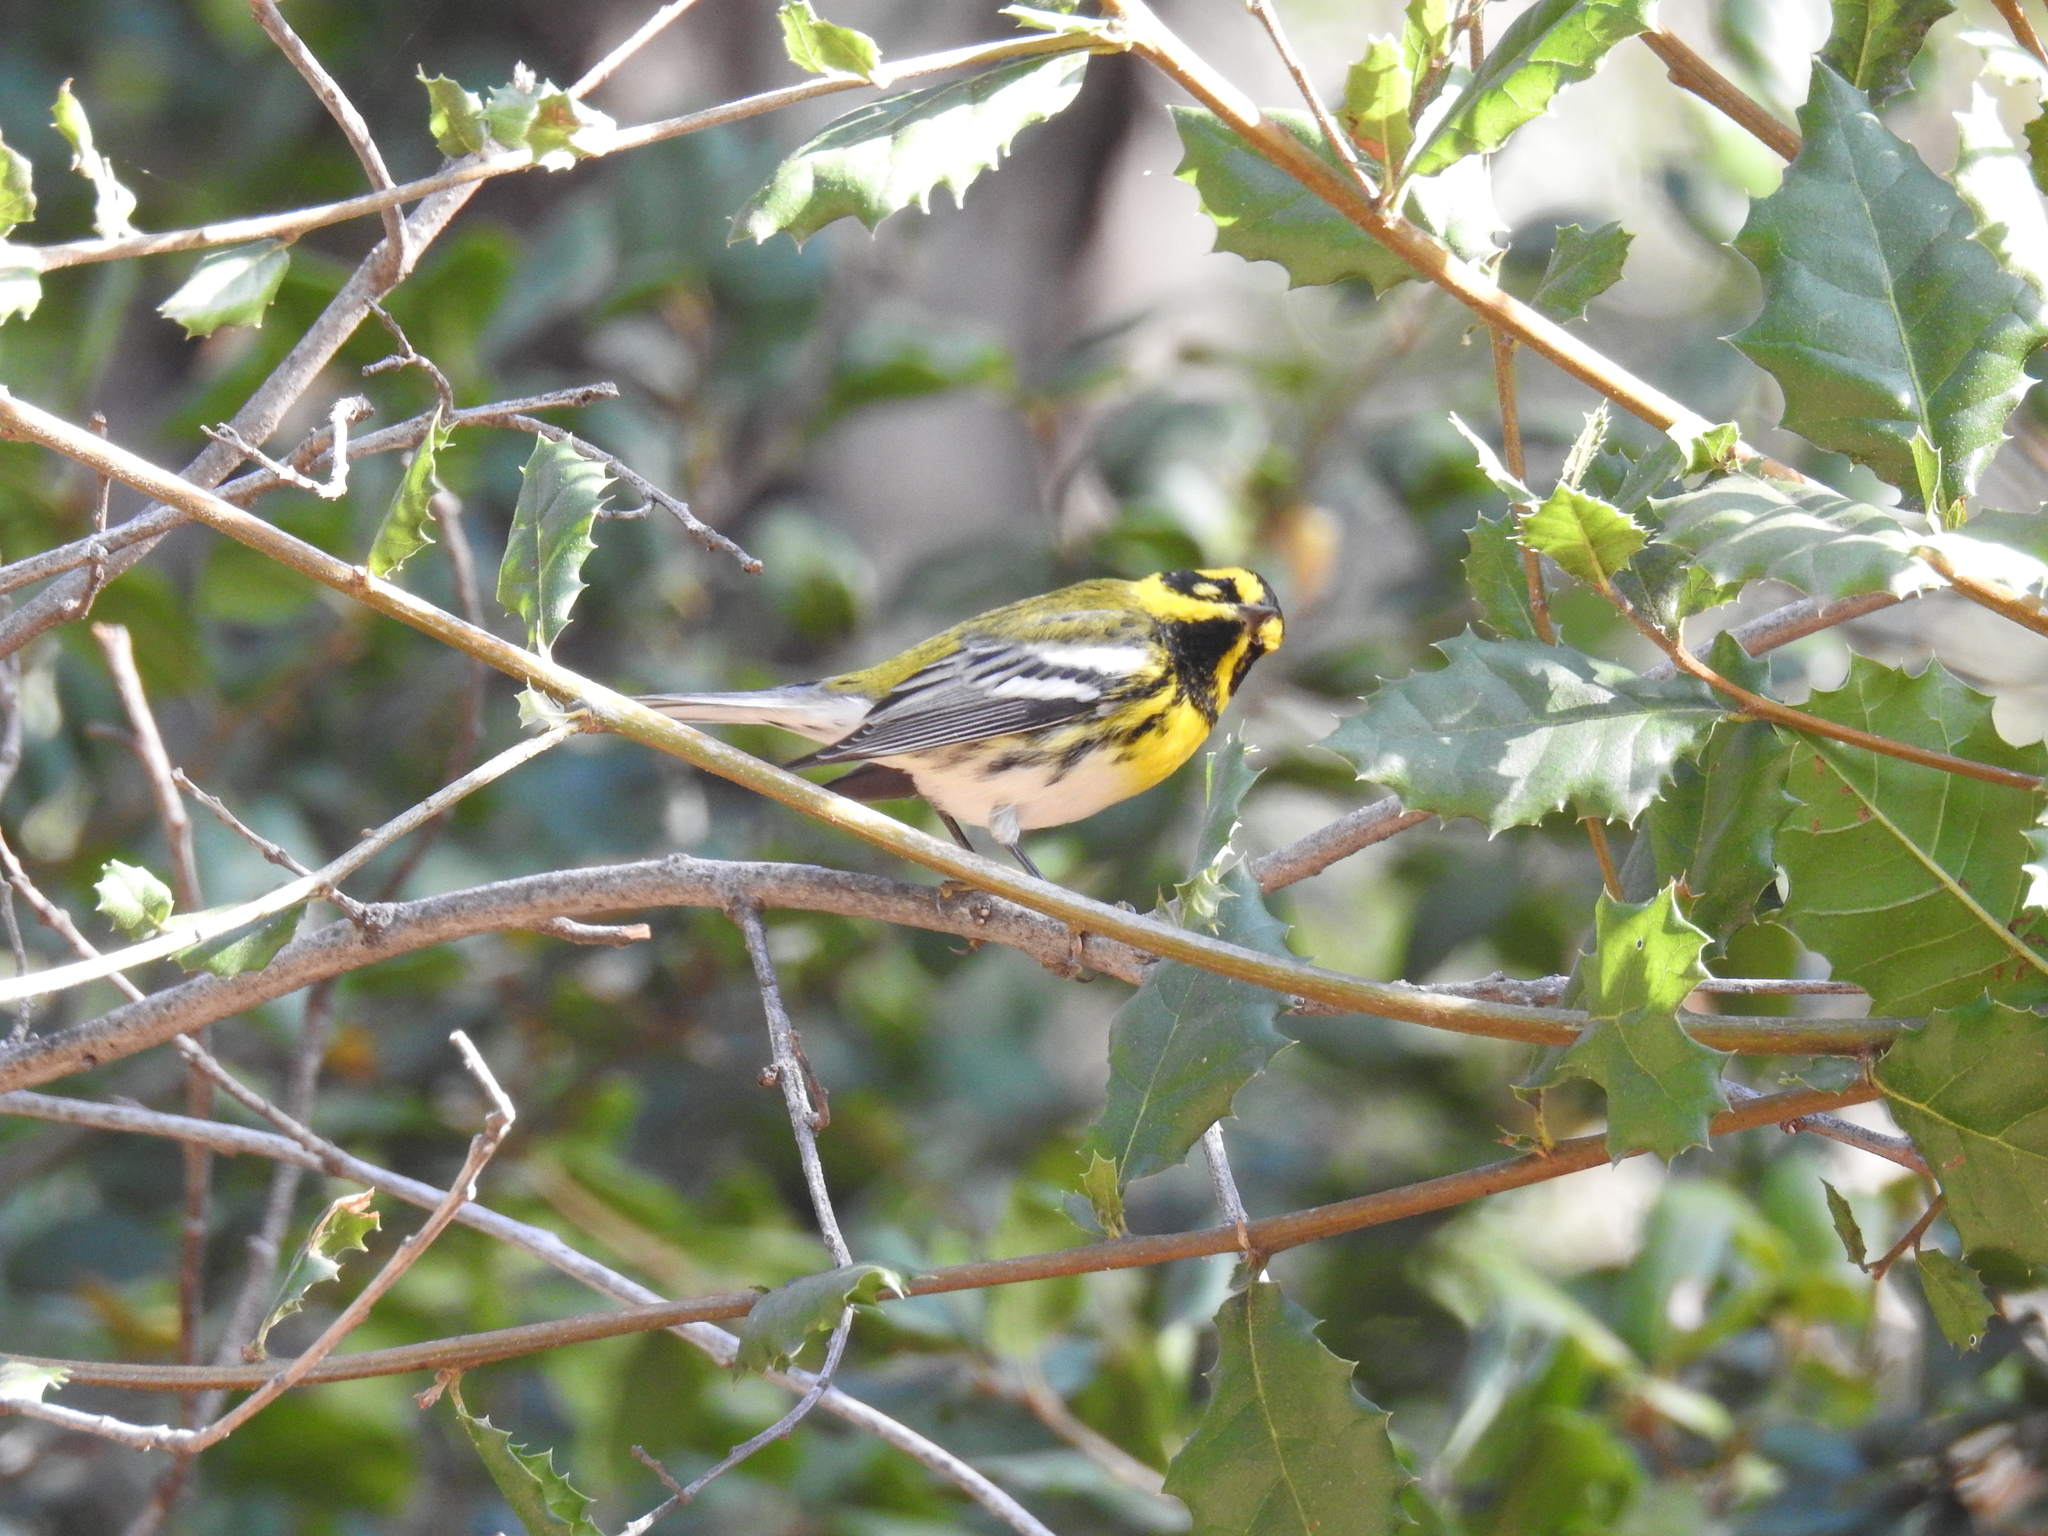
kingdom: Animalia
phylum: Chordata
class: Aves
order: Passeriformes
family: Parulidae
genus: Setophaga
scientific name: Setophaga townsendi
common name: Townsend's warbler
